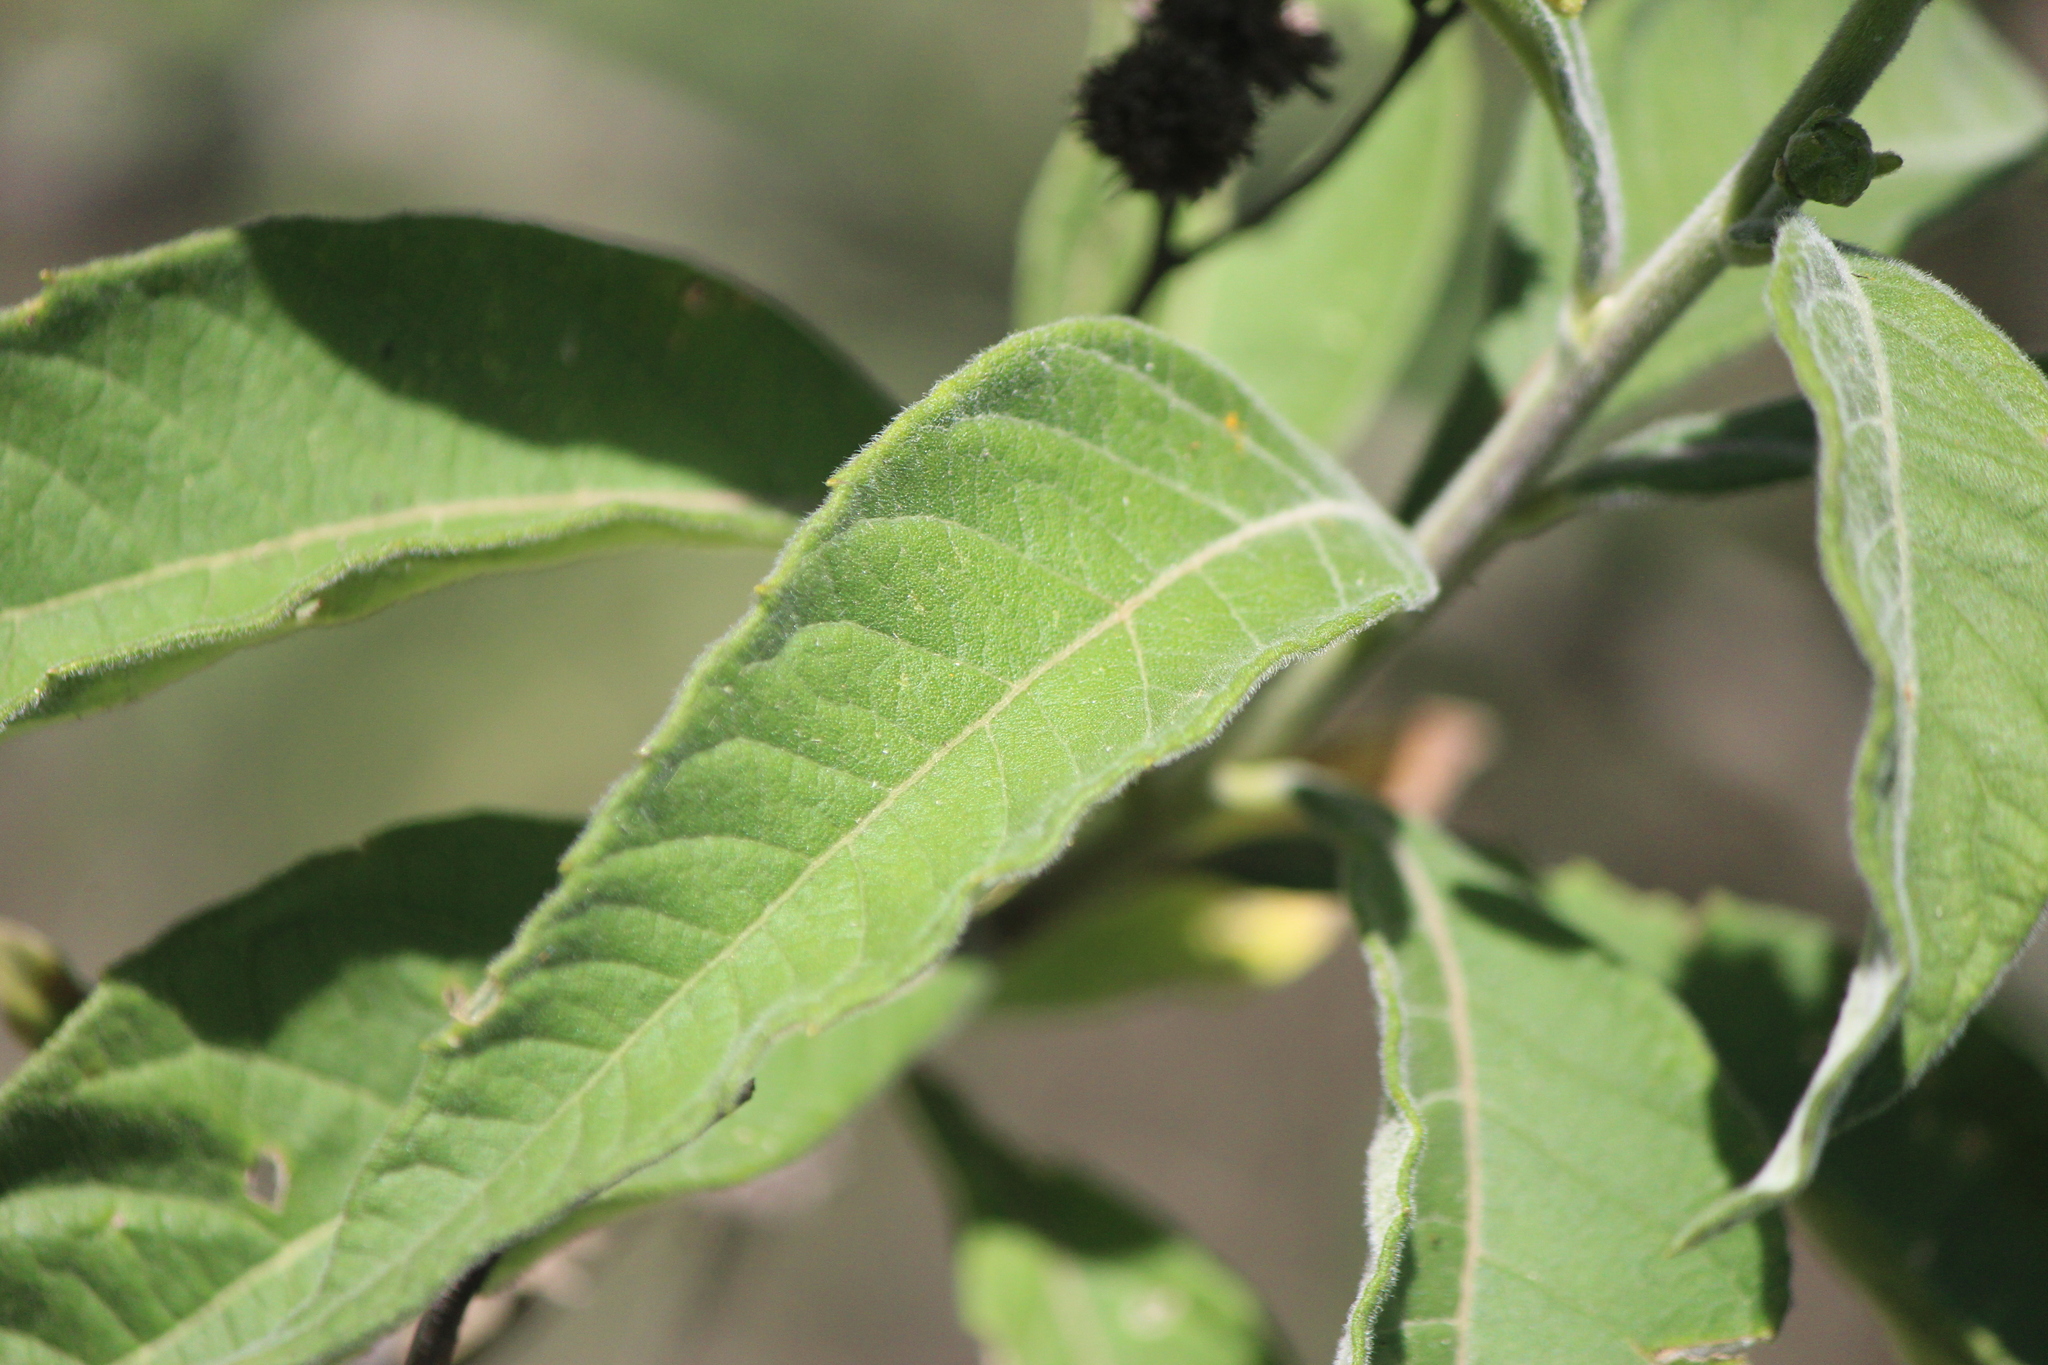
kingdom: Plantae
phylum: Tracheophyta
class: Magnoliopsida
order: Asterales
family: Asteraceae
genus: Verbesina
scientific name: Verbesina serrata
